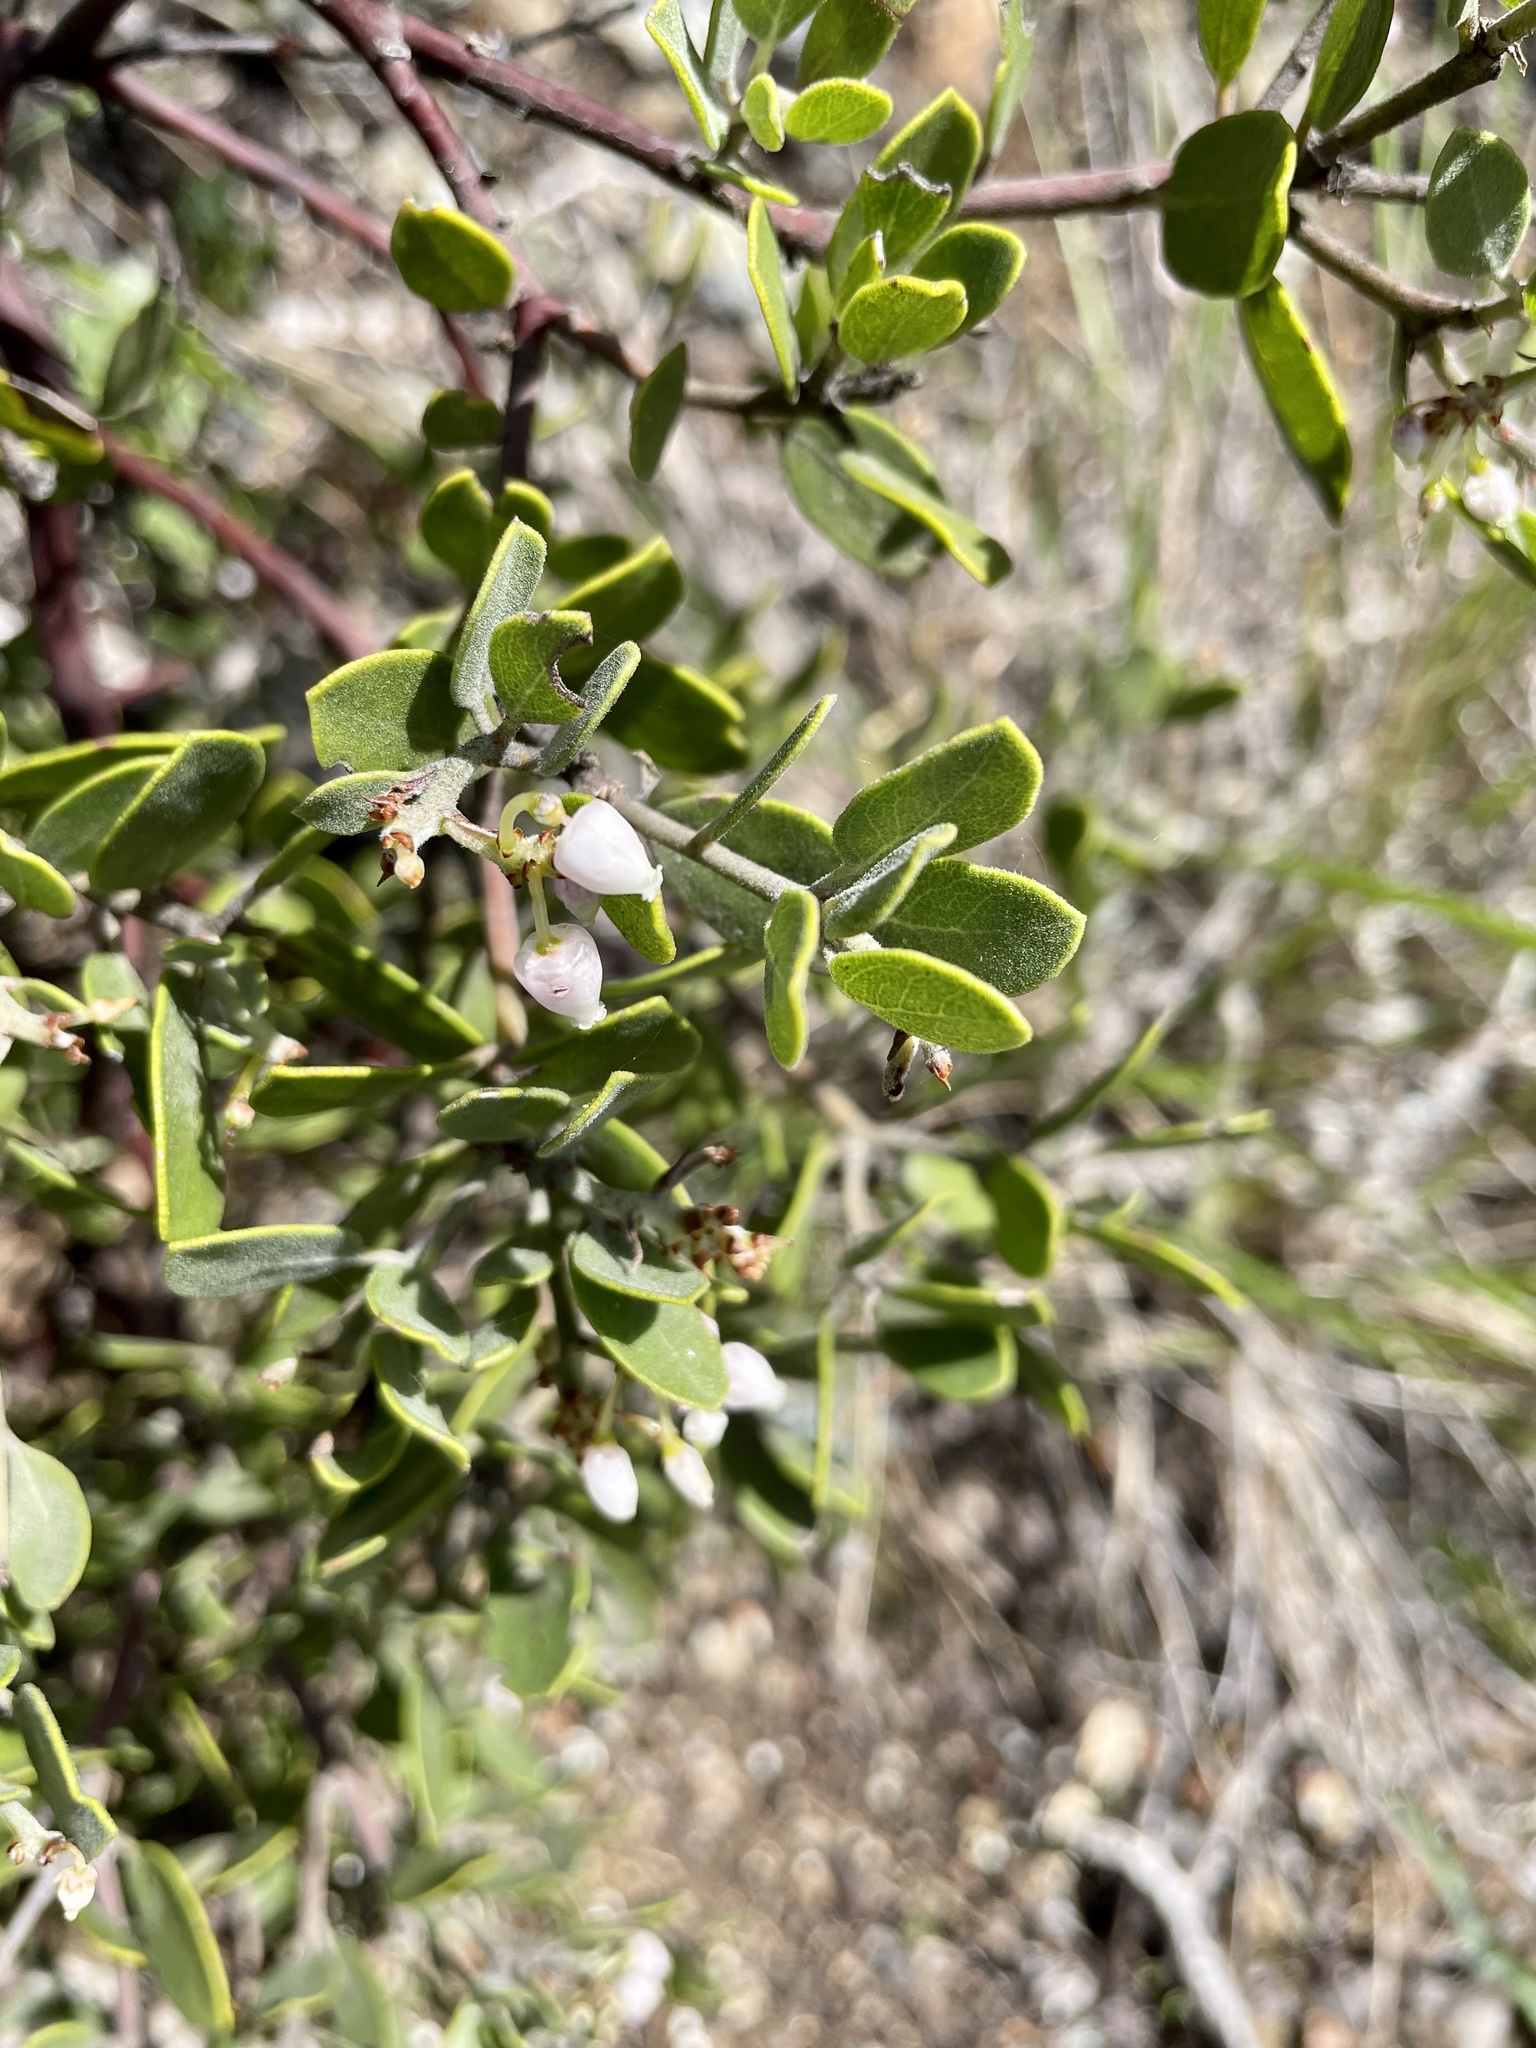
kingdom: Plantae
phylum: Tracheophyta
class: Magnoliopsida
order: Ericales
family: Ericaceae
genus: Arctostaphylos
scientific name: Arctostaphylos montana
